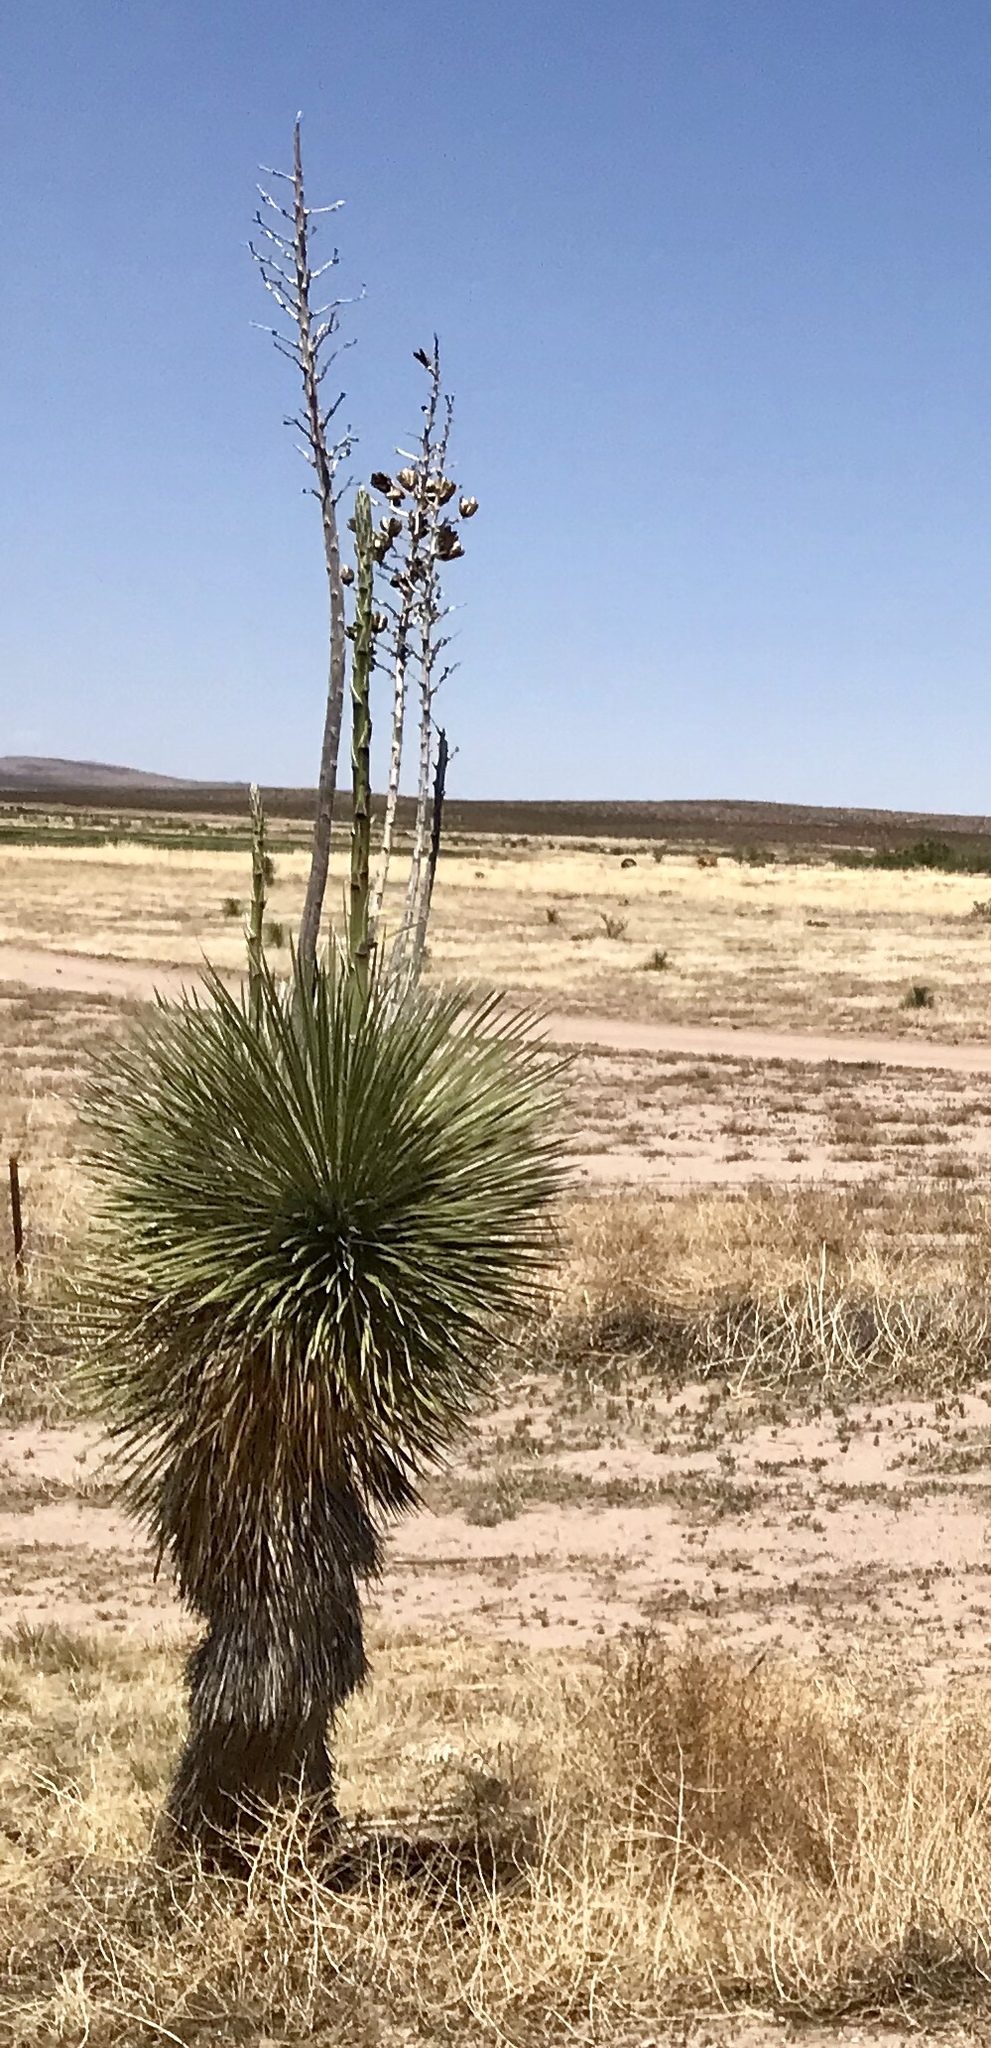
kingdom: Plantae
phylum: Tracheophyta
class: Liliopsida
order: Asparagales
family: Asparagaceae
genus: Yucca
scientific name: Yucca elata
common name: Palmella
